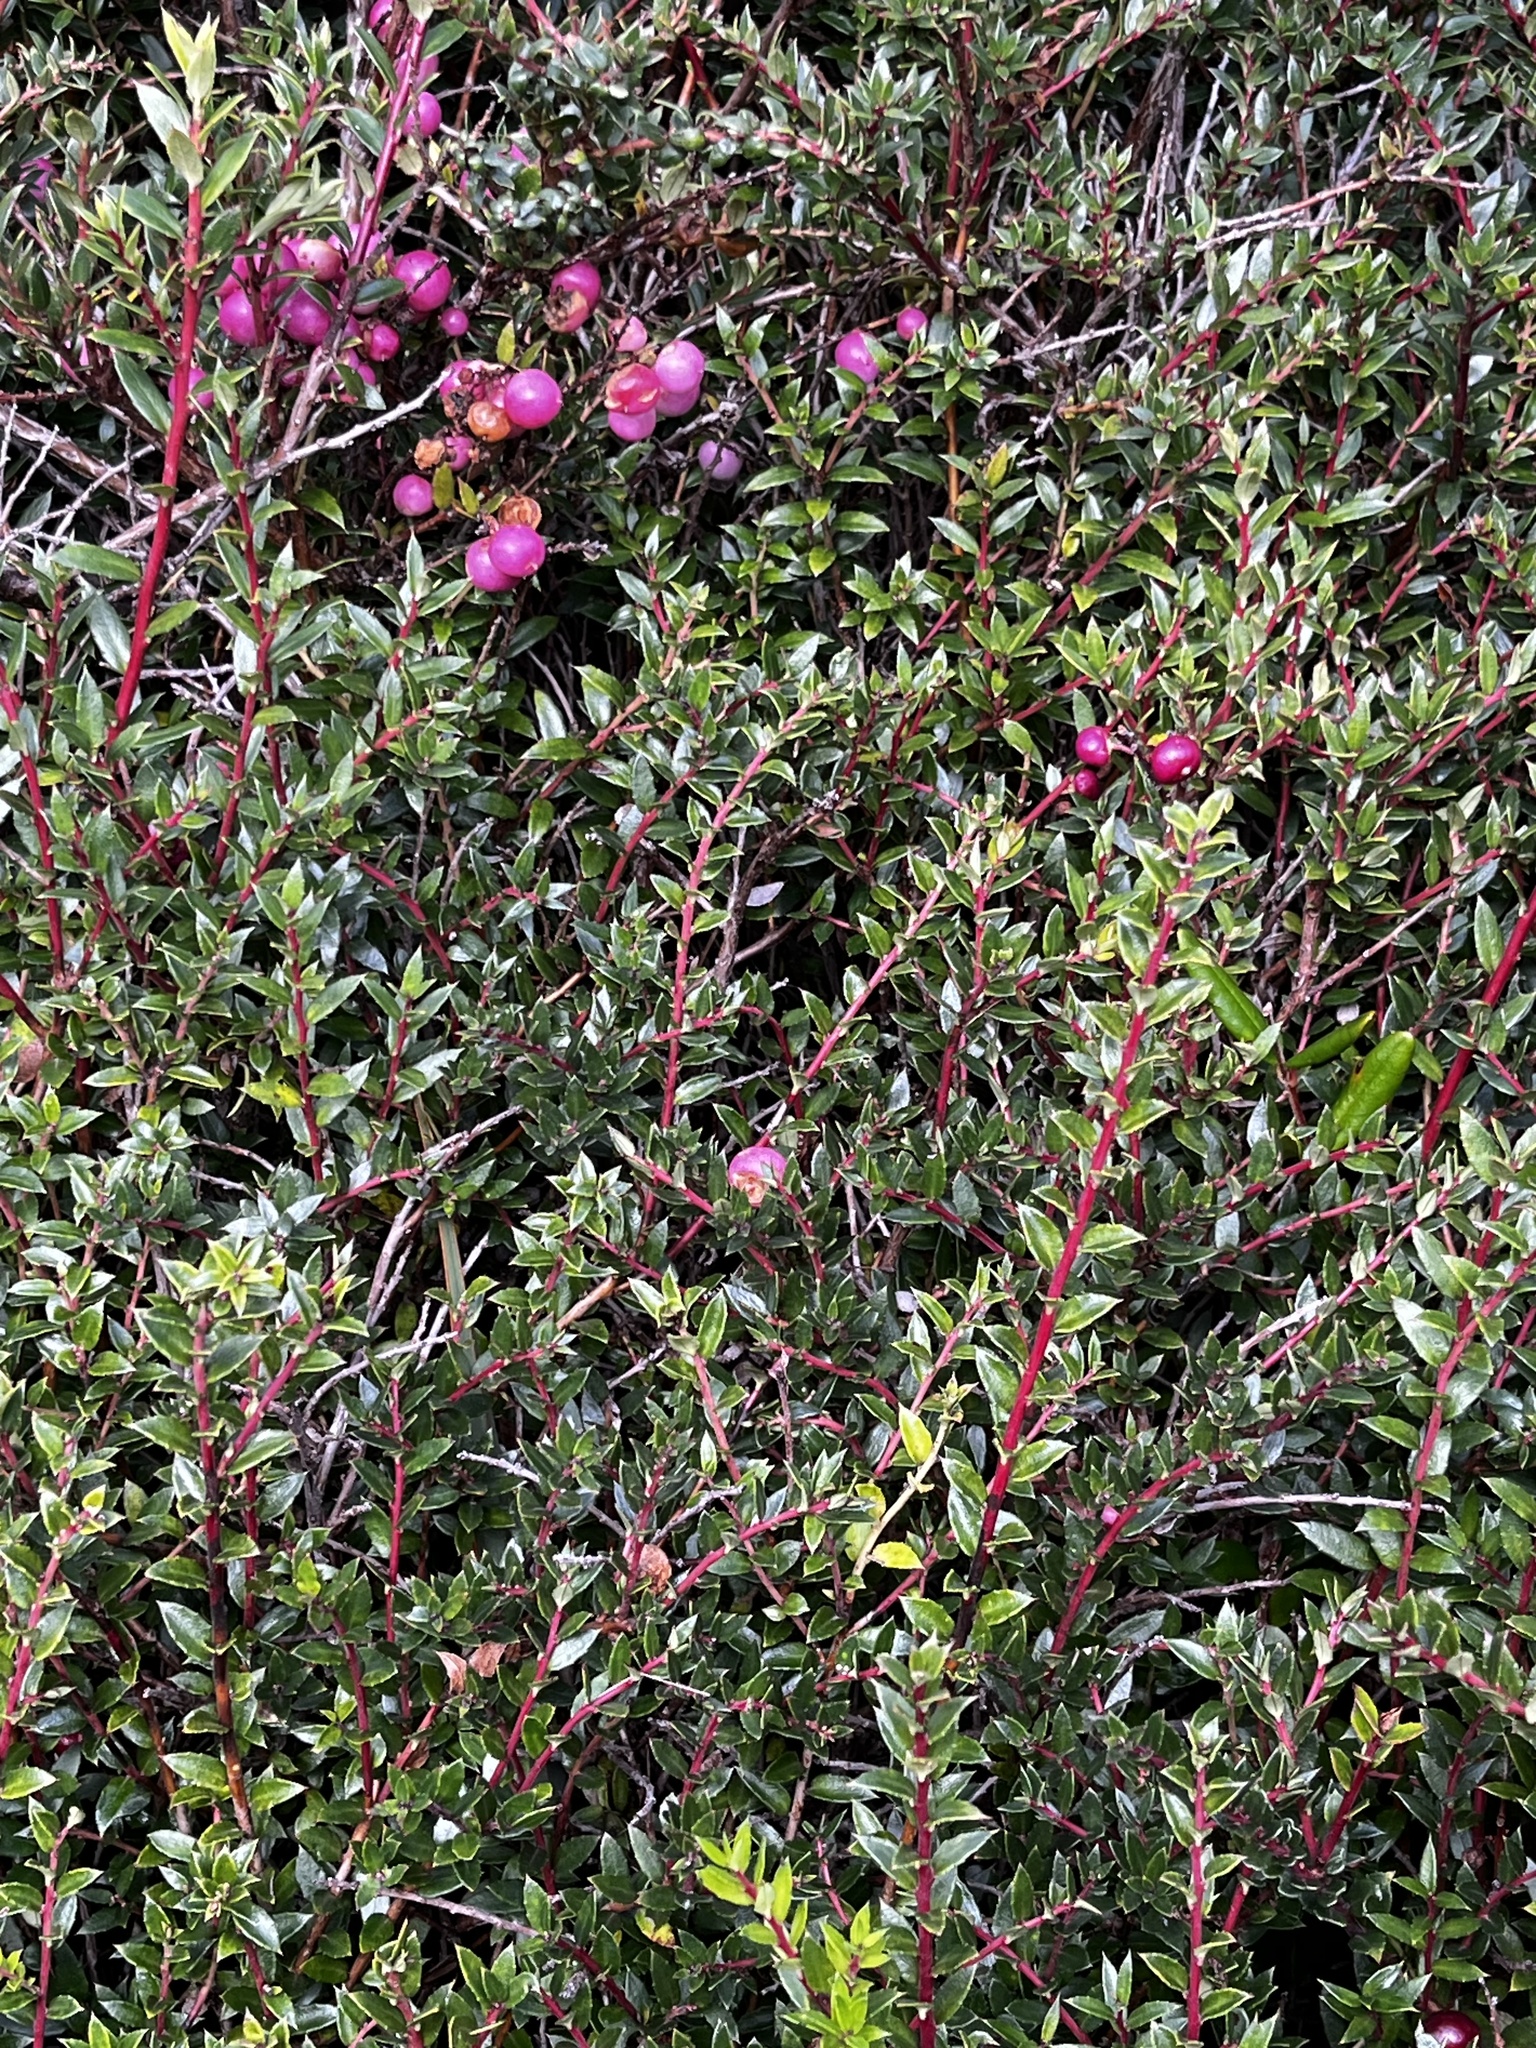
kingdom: Plantae
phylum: Tracheophyta
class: Magnoliopsida
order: Ericales
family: Ericaceae
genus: Gaultheria
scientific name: Gaultheria mucronata
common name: Prickly heath
